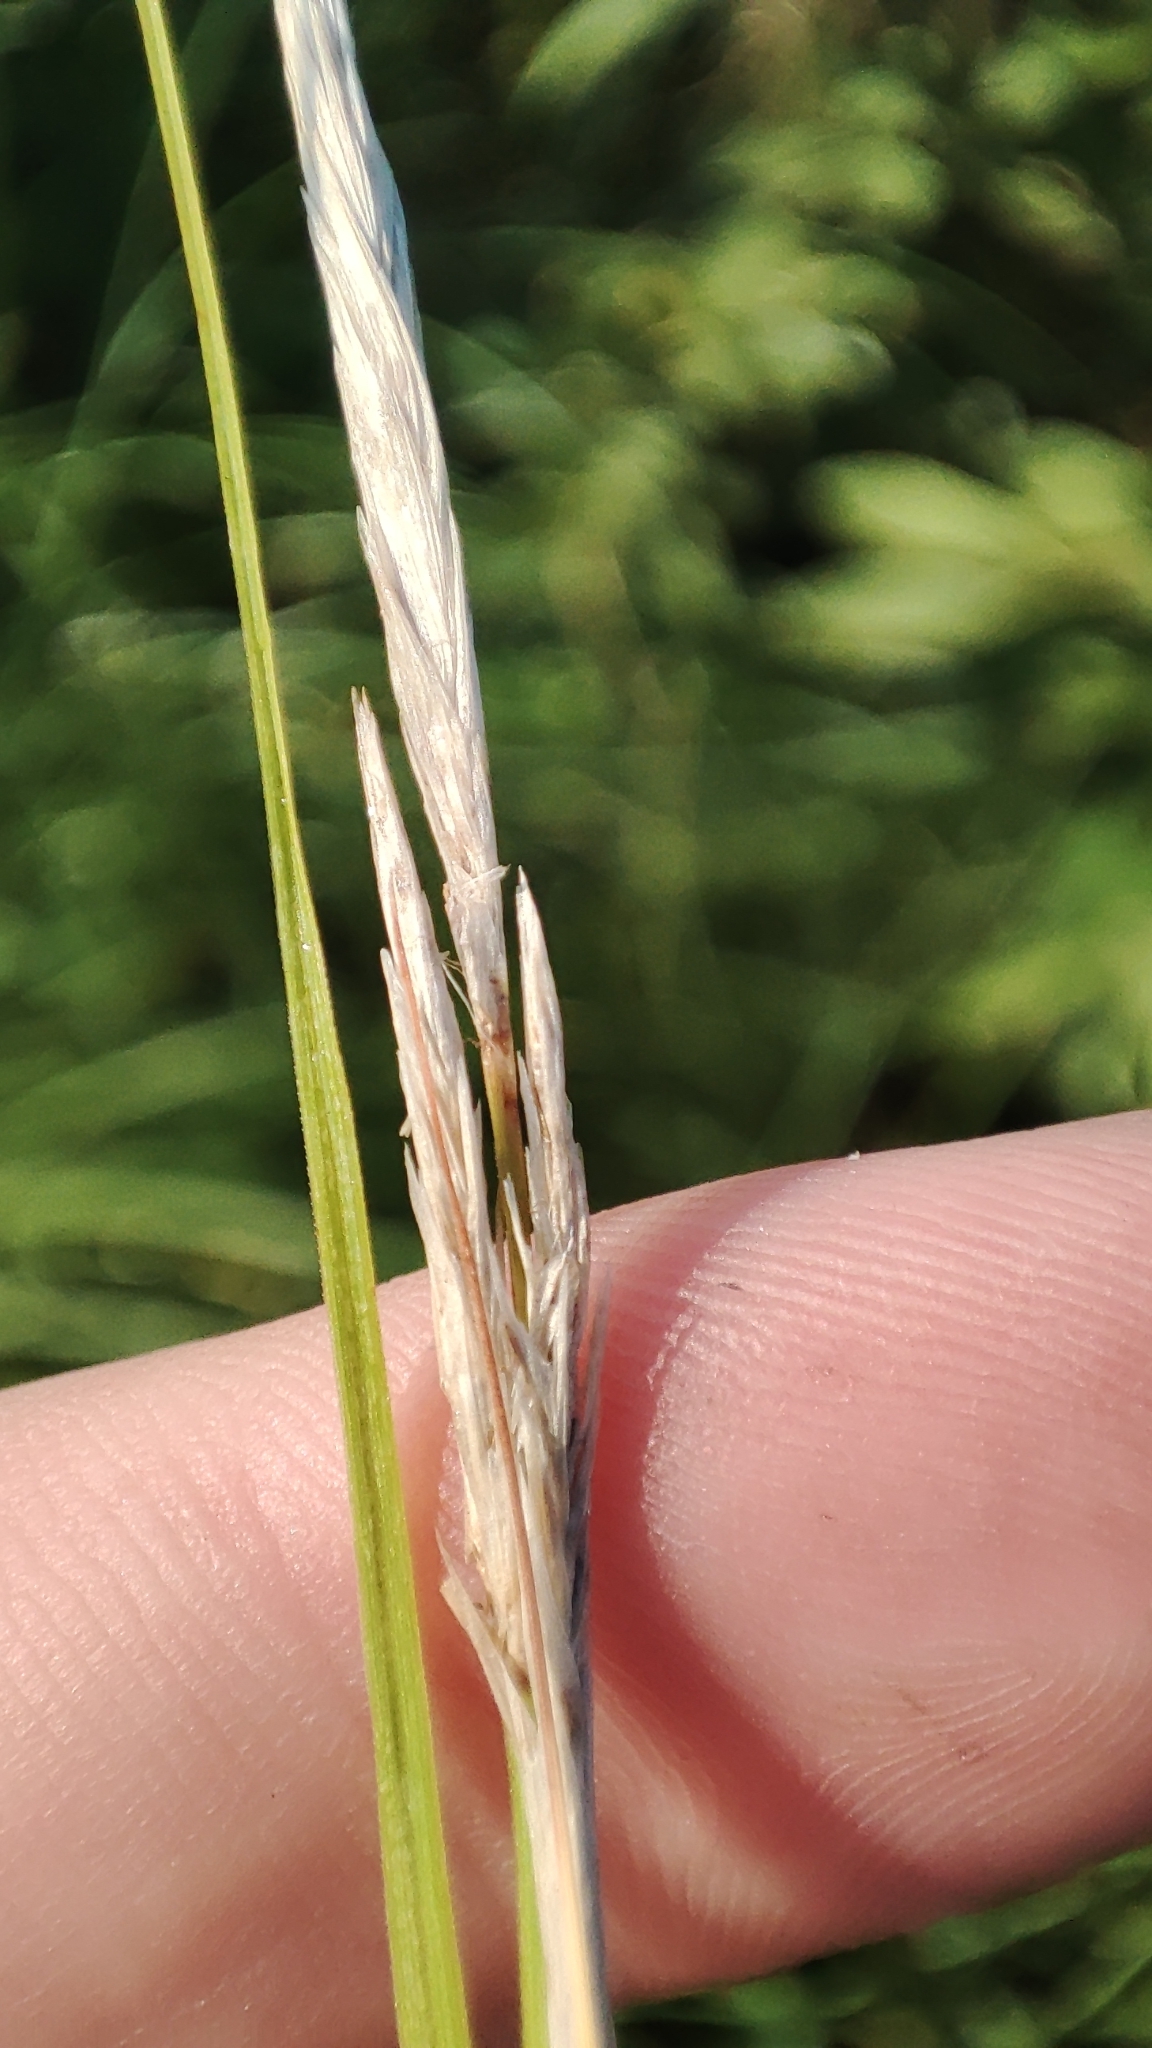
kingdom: Plantae
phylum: Tracheophyta
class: Liliopsida
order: Poales
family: Cyperaceae
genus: Carex
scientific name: Carex vesicaria
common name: Bladder-sedge
